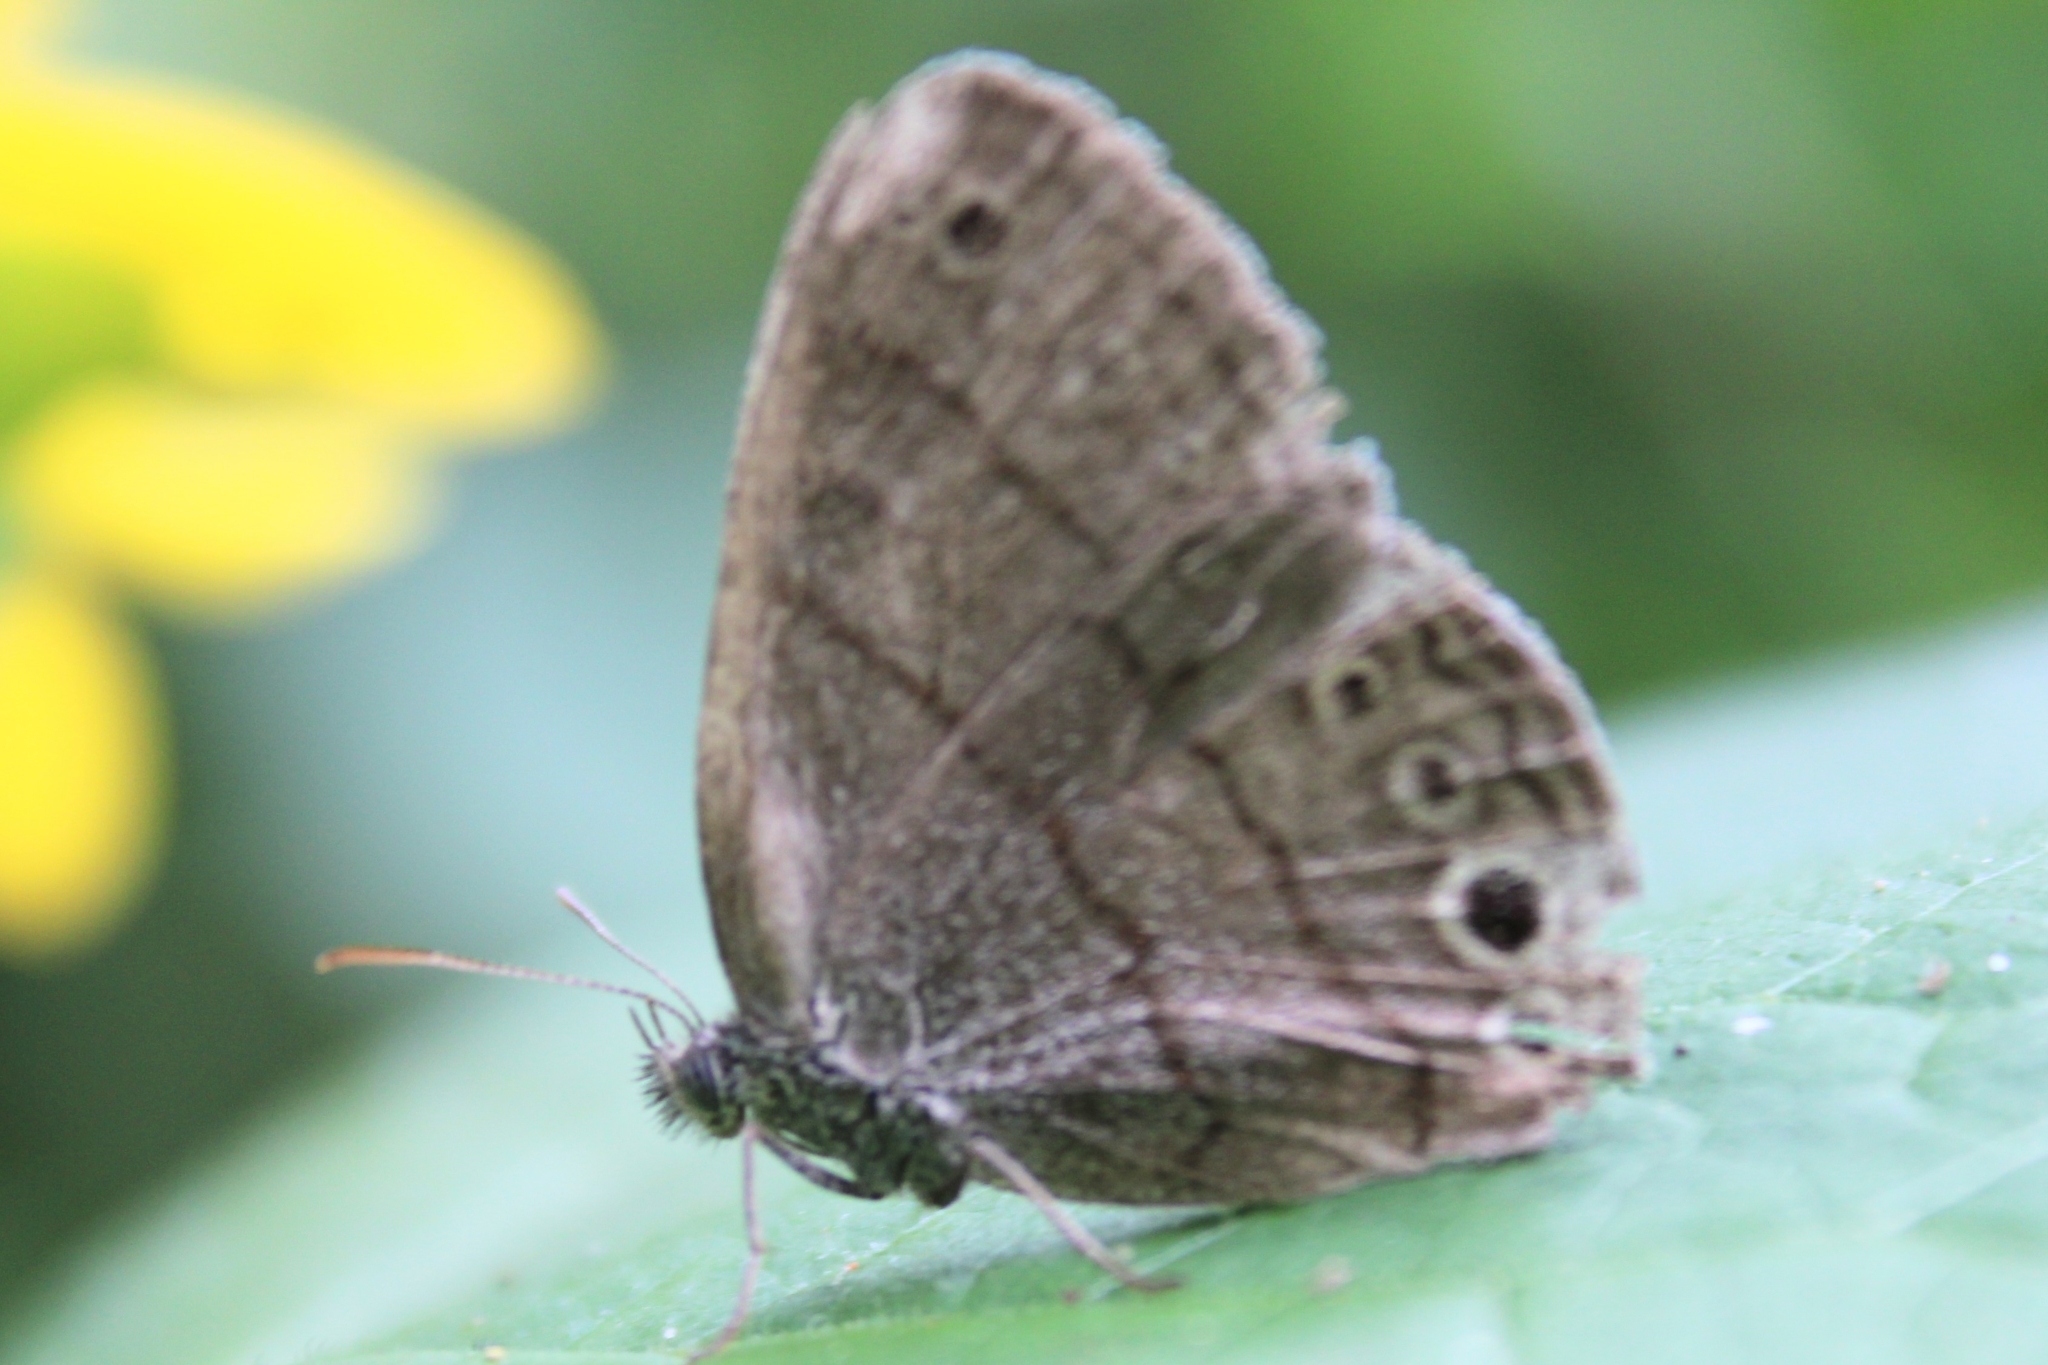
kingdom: Animalia
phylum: Arthropoda
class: Insecta
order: Lepidoptera
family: Nymphalidae
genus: Hermeuptychia
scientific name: Hermeuptychia hermes
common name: Hermes satyr
